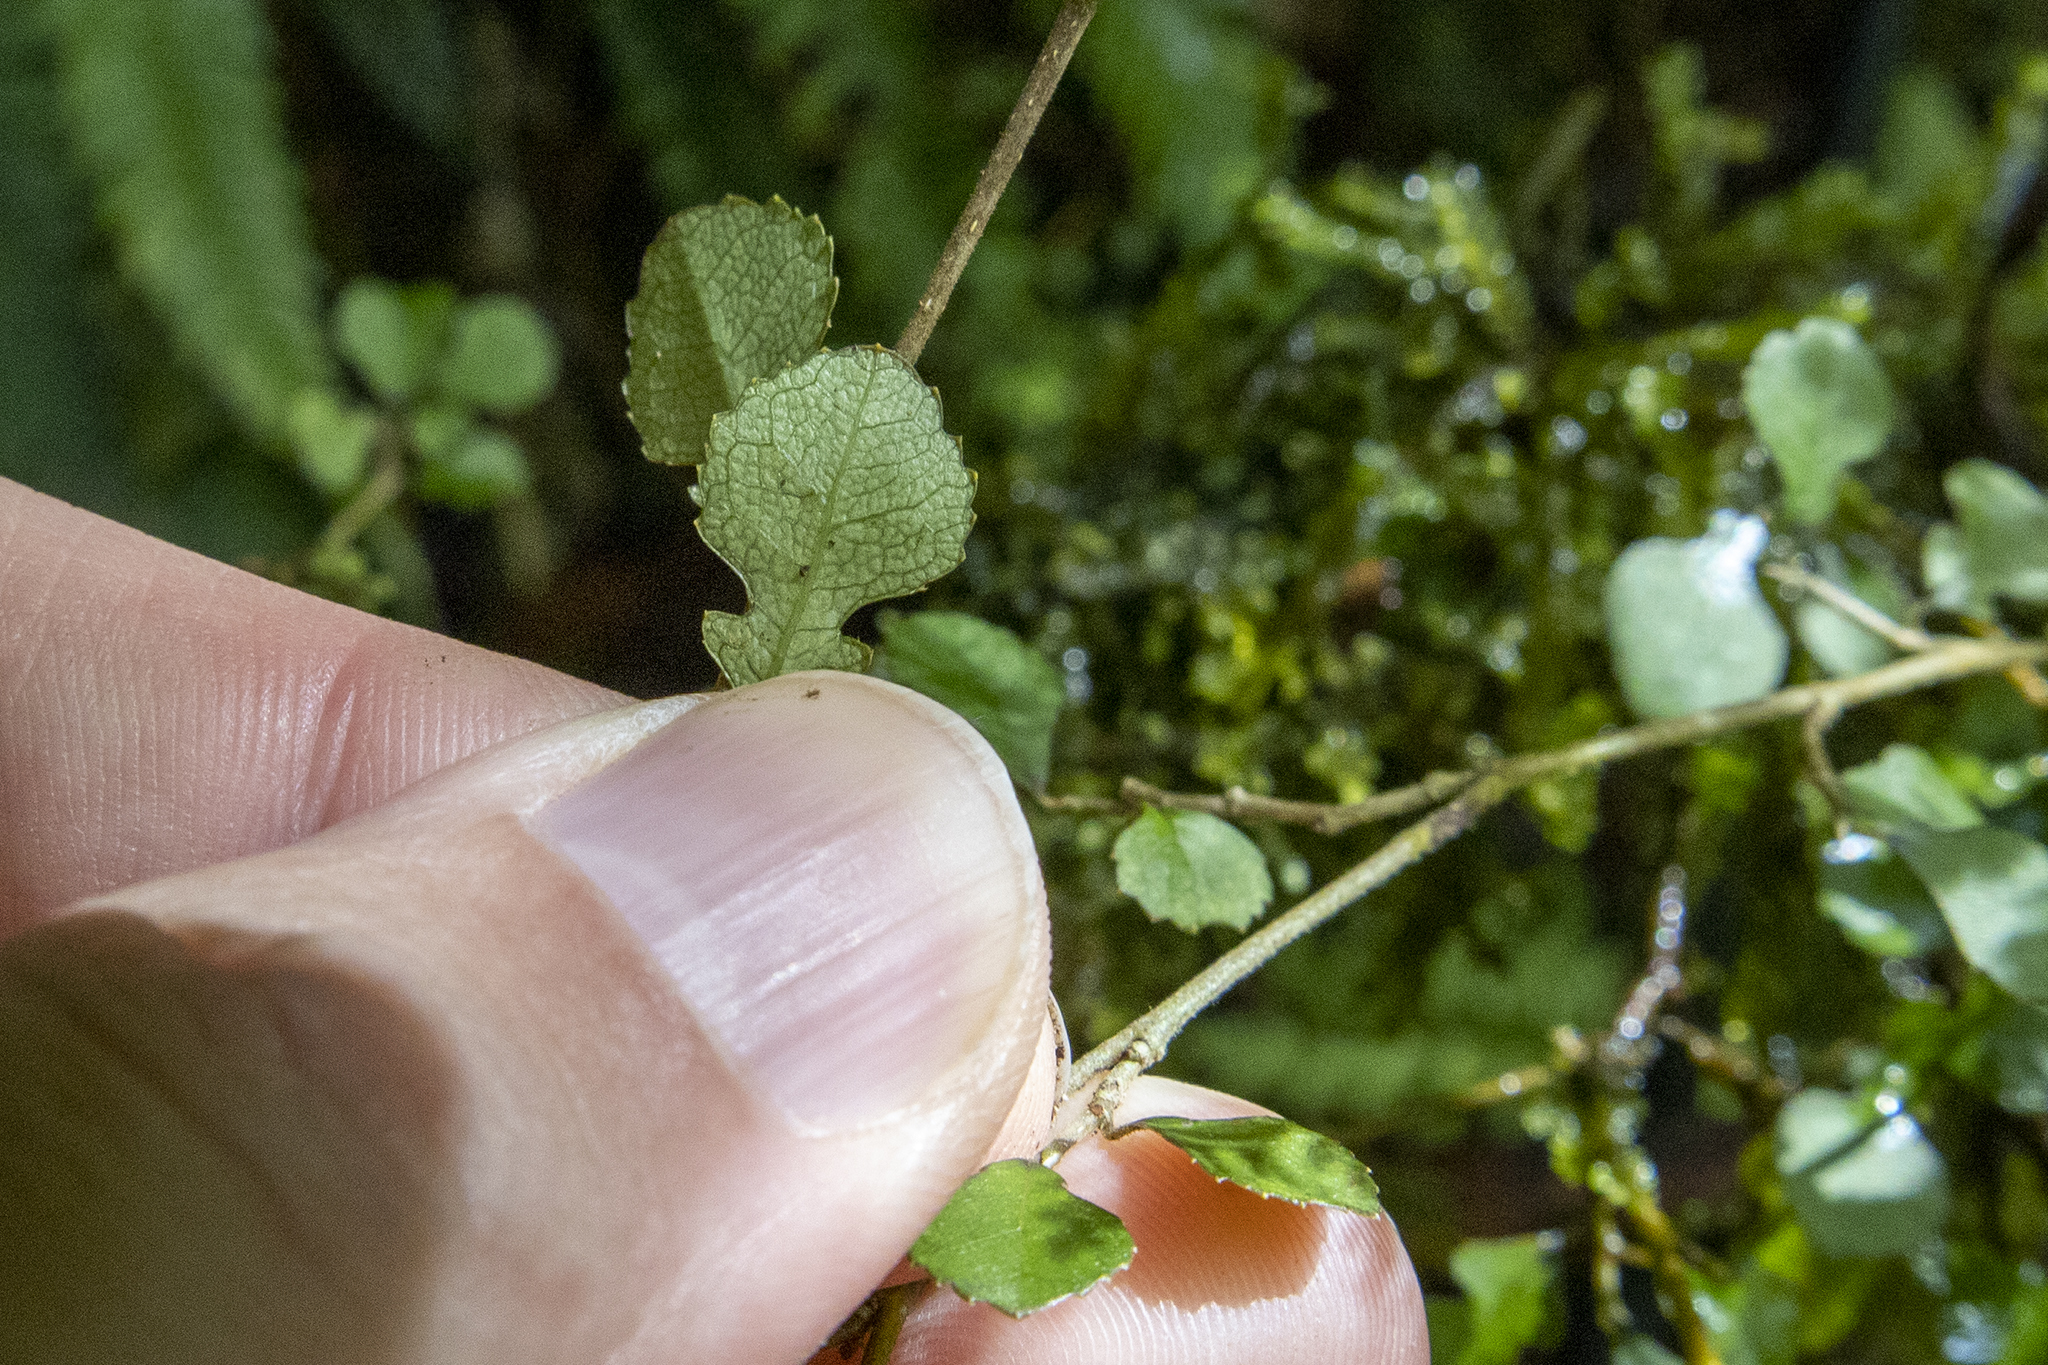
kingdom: Plantae
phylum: Tracheophyta
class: Magnoliopsida
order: Rosales
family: Moraceae
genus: Paratrophis
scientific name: Paratrophis microphylla
